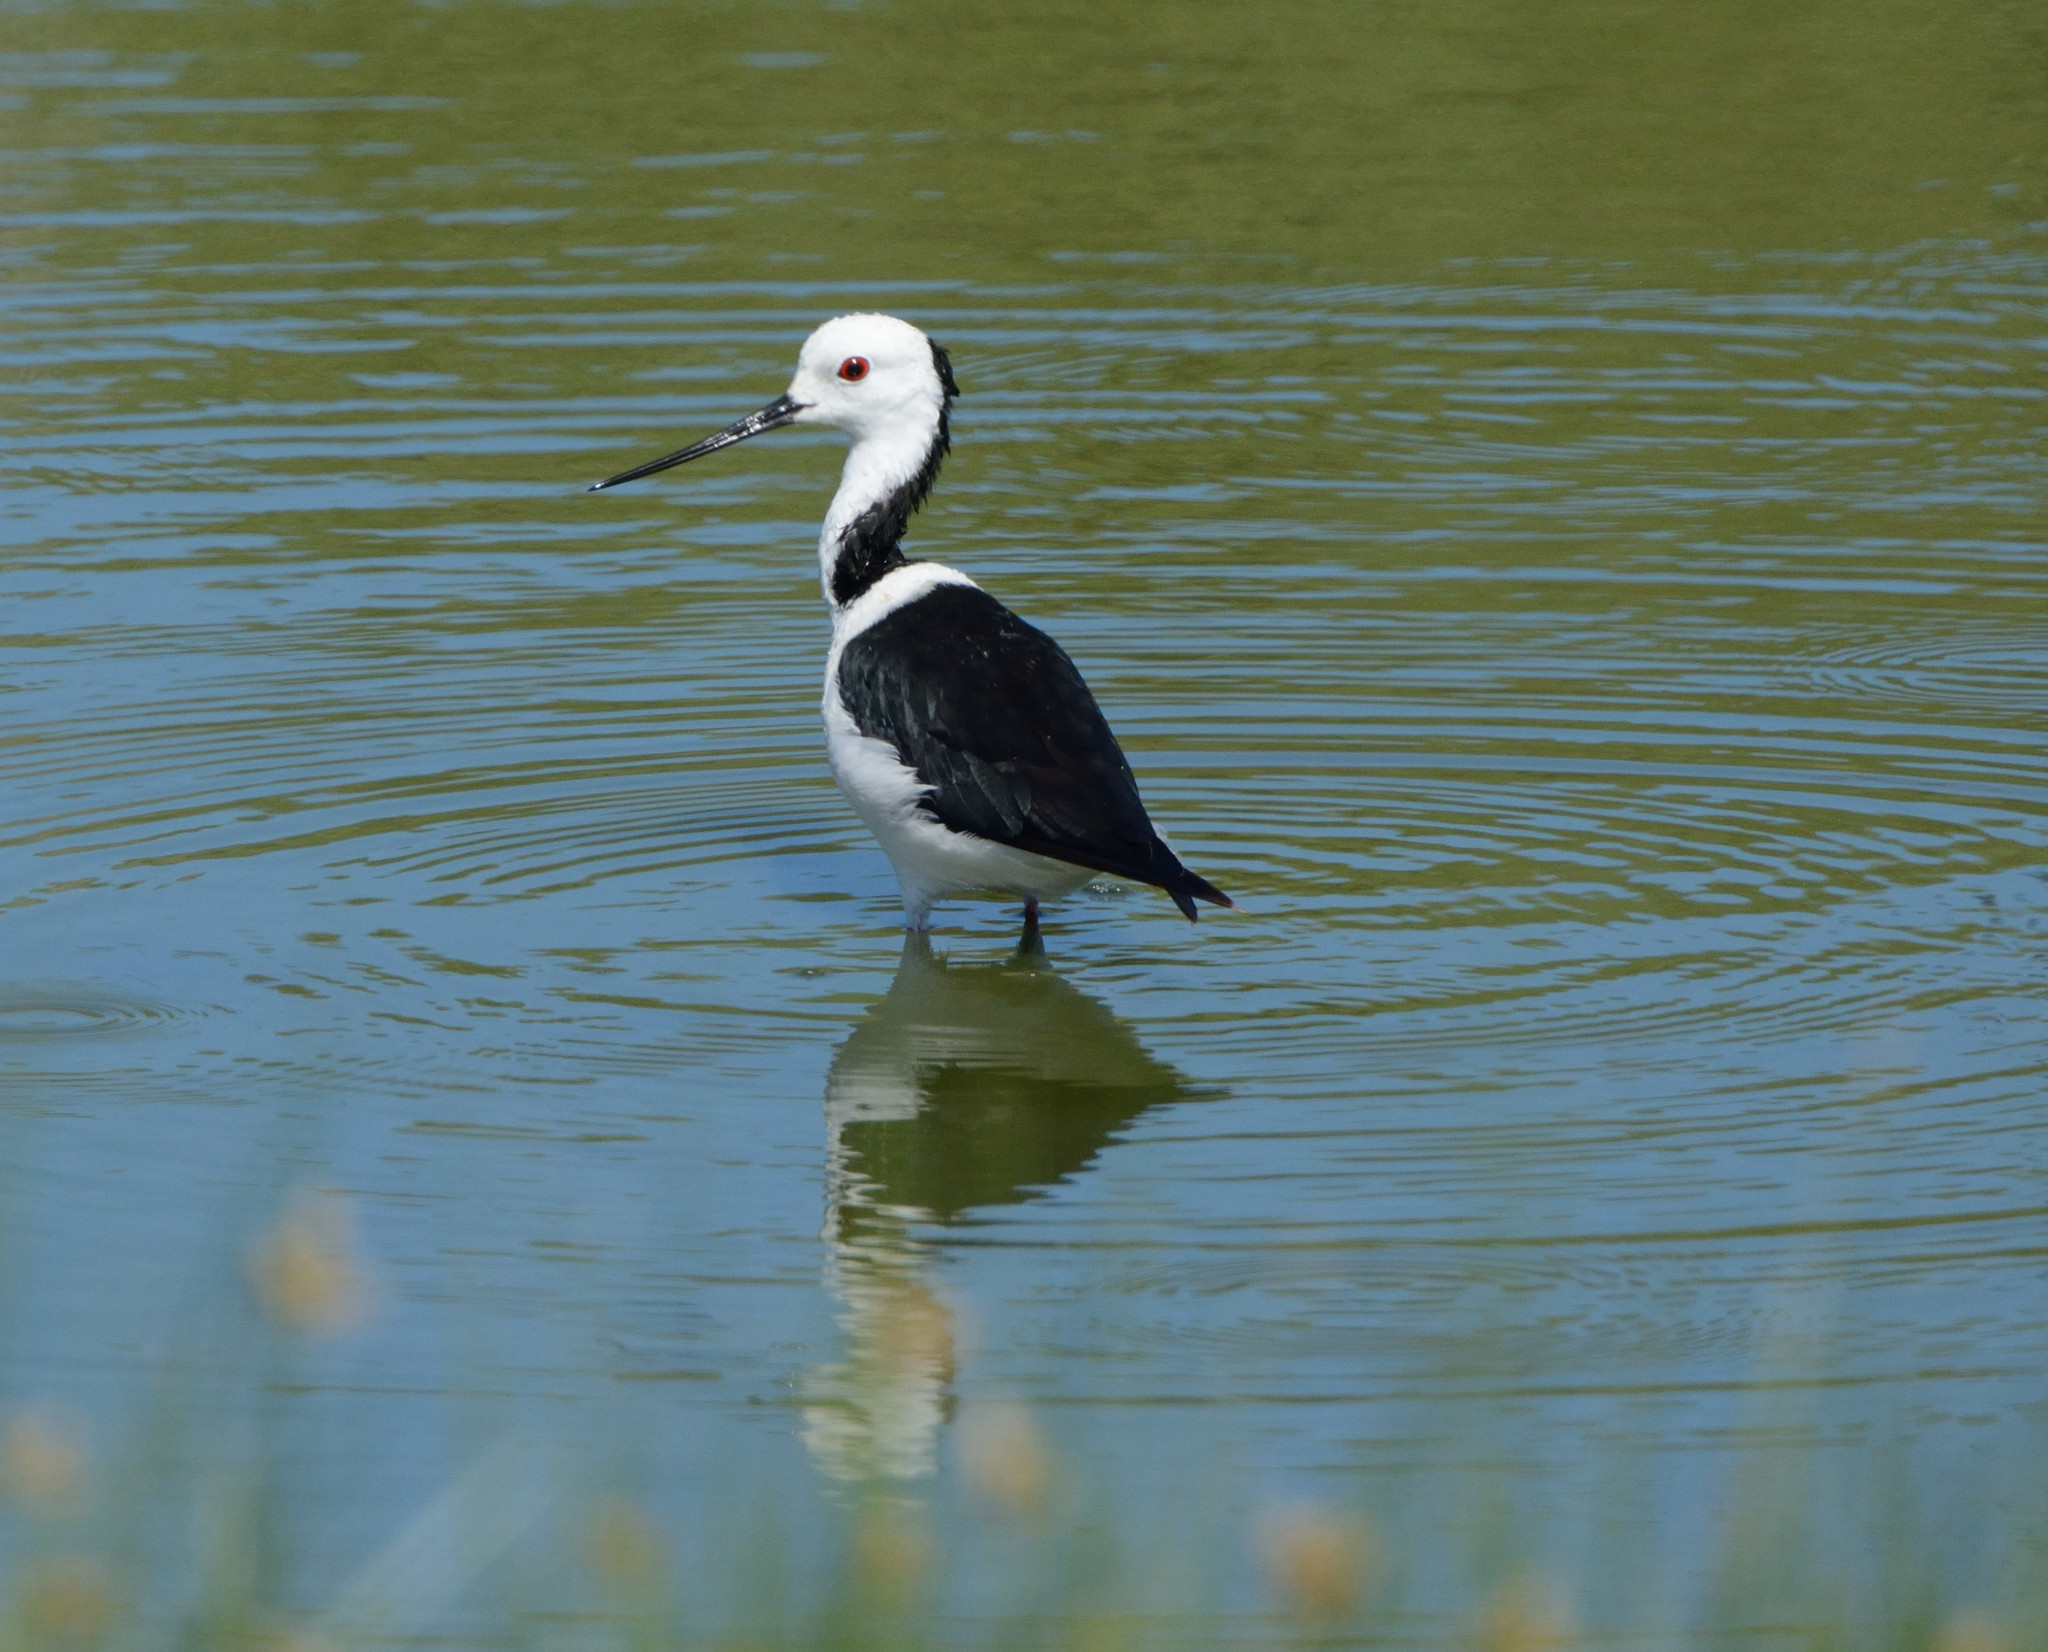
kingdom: Animalia
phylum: Chordata
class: Aves
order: Charadriiformes
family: Recurvirostridae
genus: Himantopus
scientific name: Himantopus leucocephalus
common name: White-headed stilt
